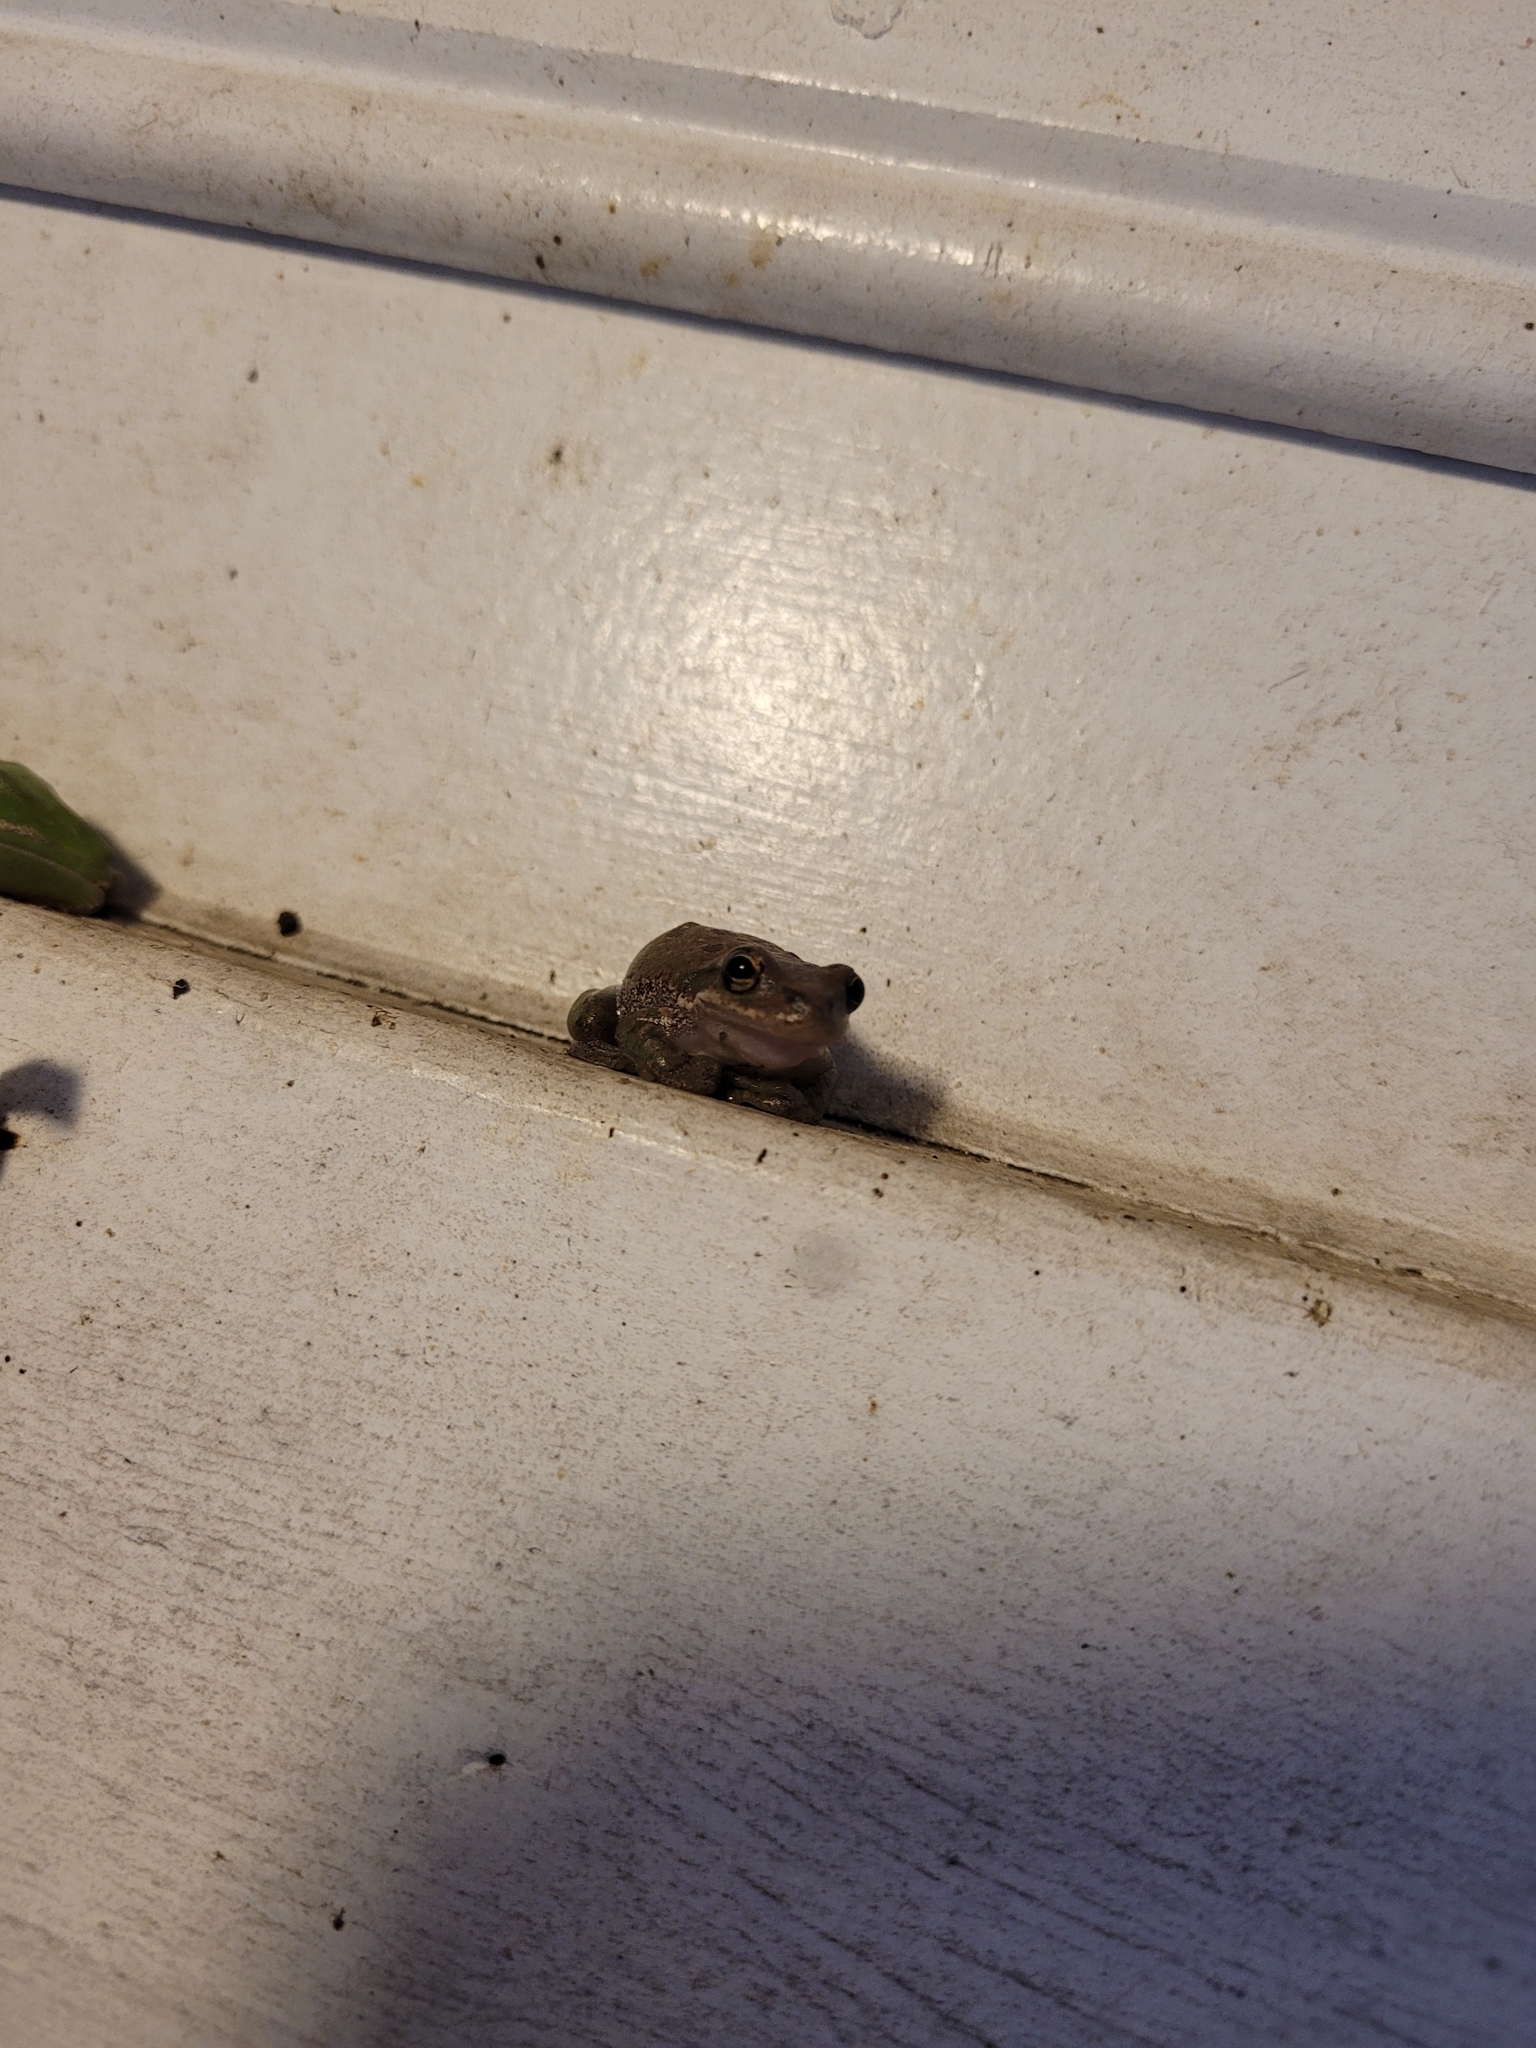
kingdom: Animalia
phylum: Chordata
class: Amphibia
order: Anura
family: Hylidae
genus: Dryophytes
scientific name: Dryophytes squirellus
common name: Squirrel treefrog
